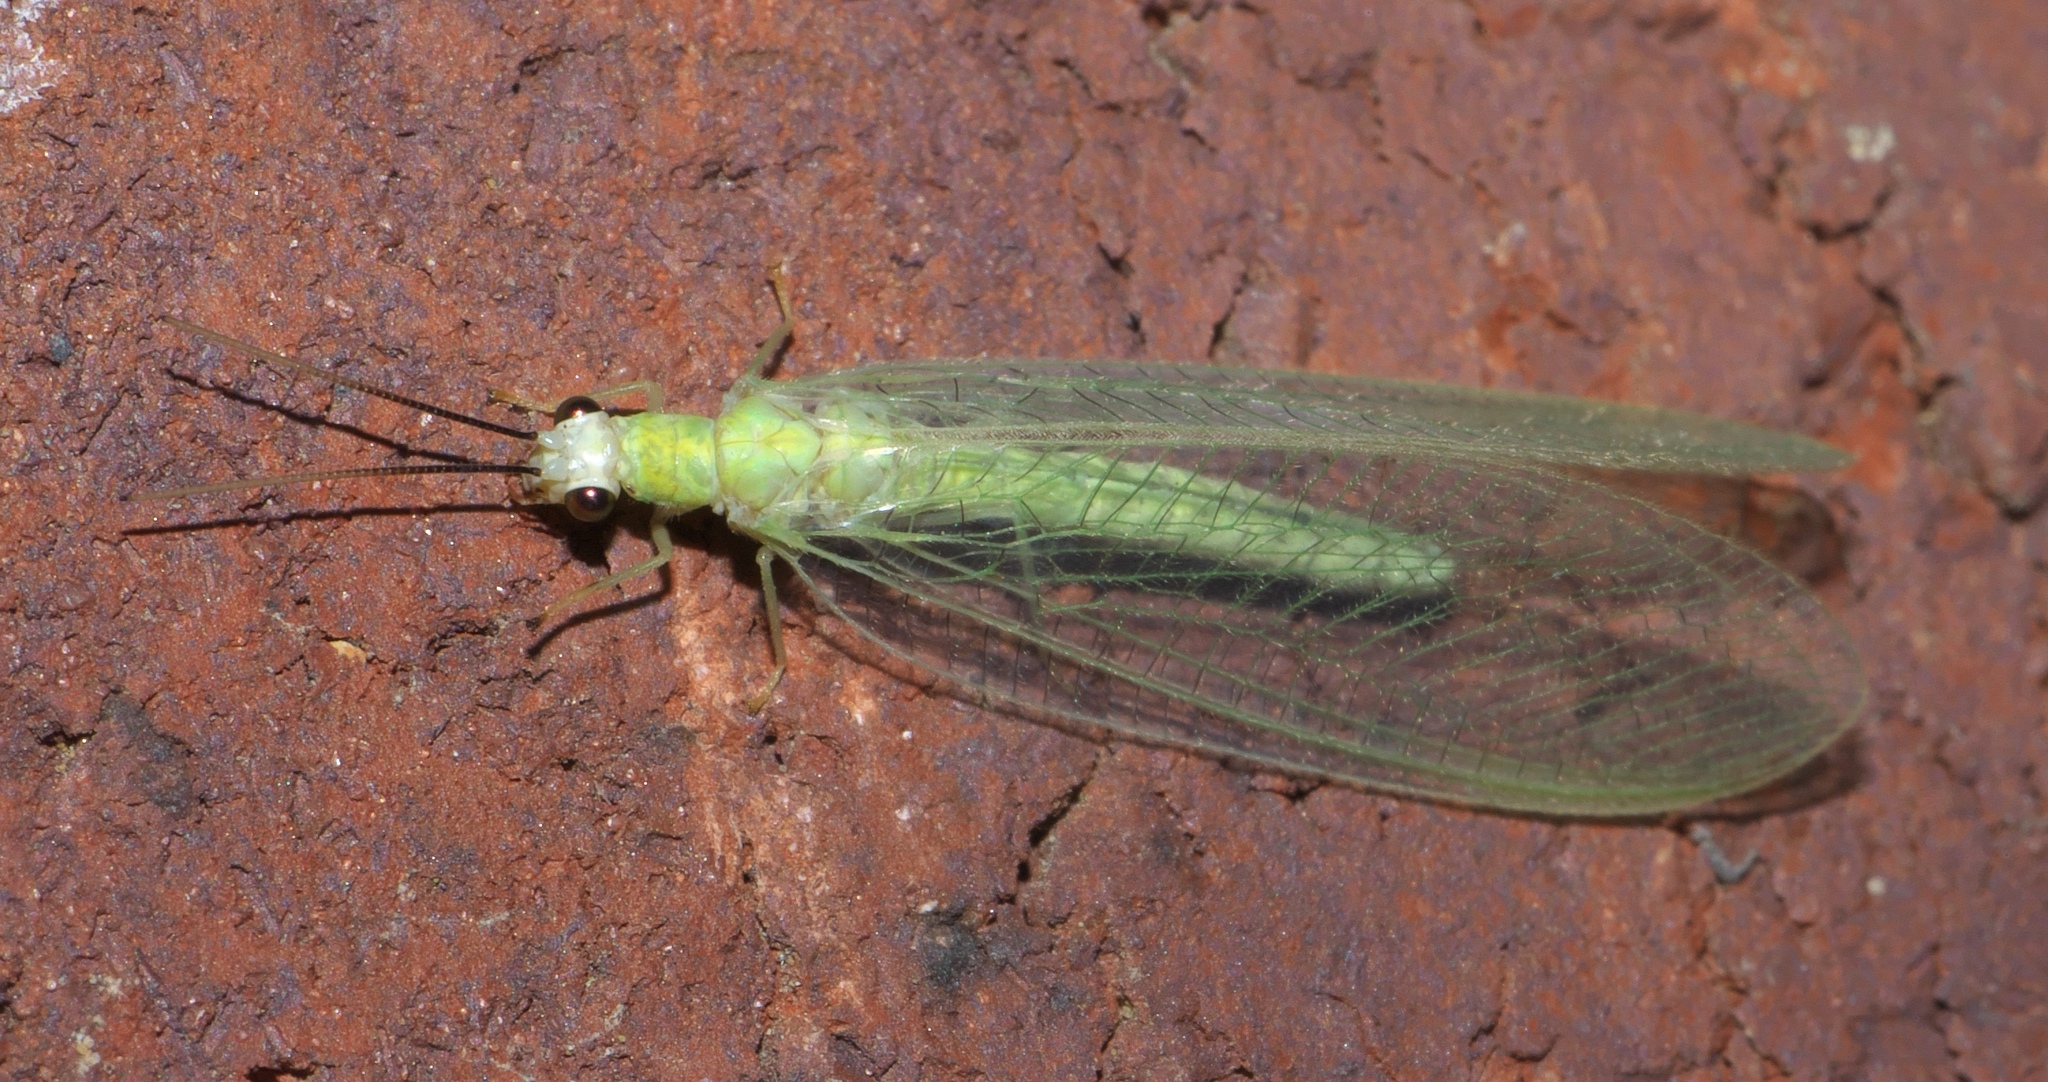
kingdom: Animalia
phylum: Arthropoda
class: Insecta
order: Neuroptera
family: Chrysopidae
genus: Chrysopa
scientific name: Chrysopa nigricornis
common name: Black-horned green lacewing
